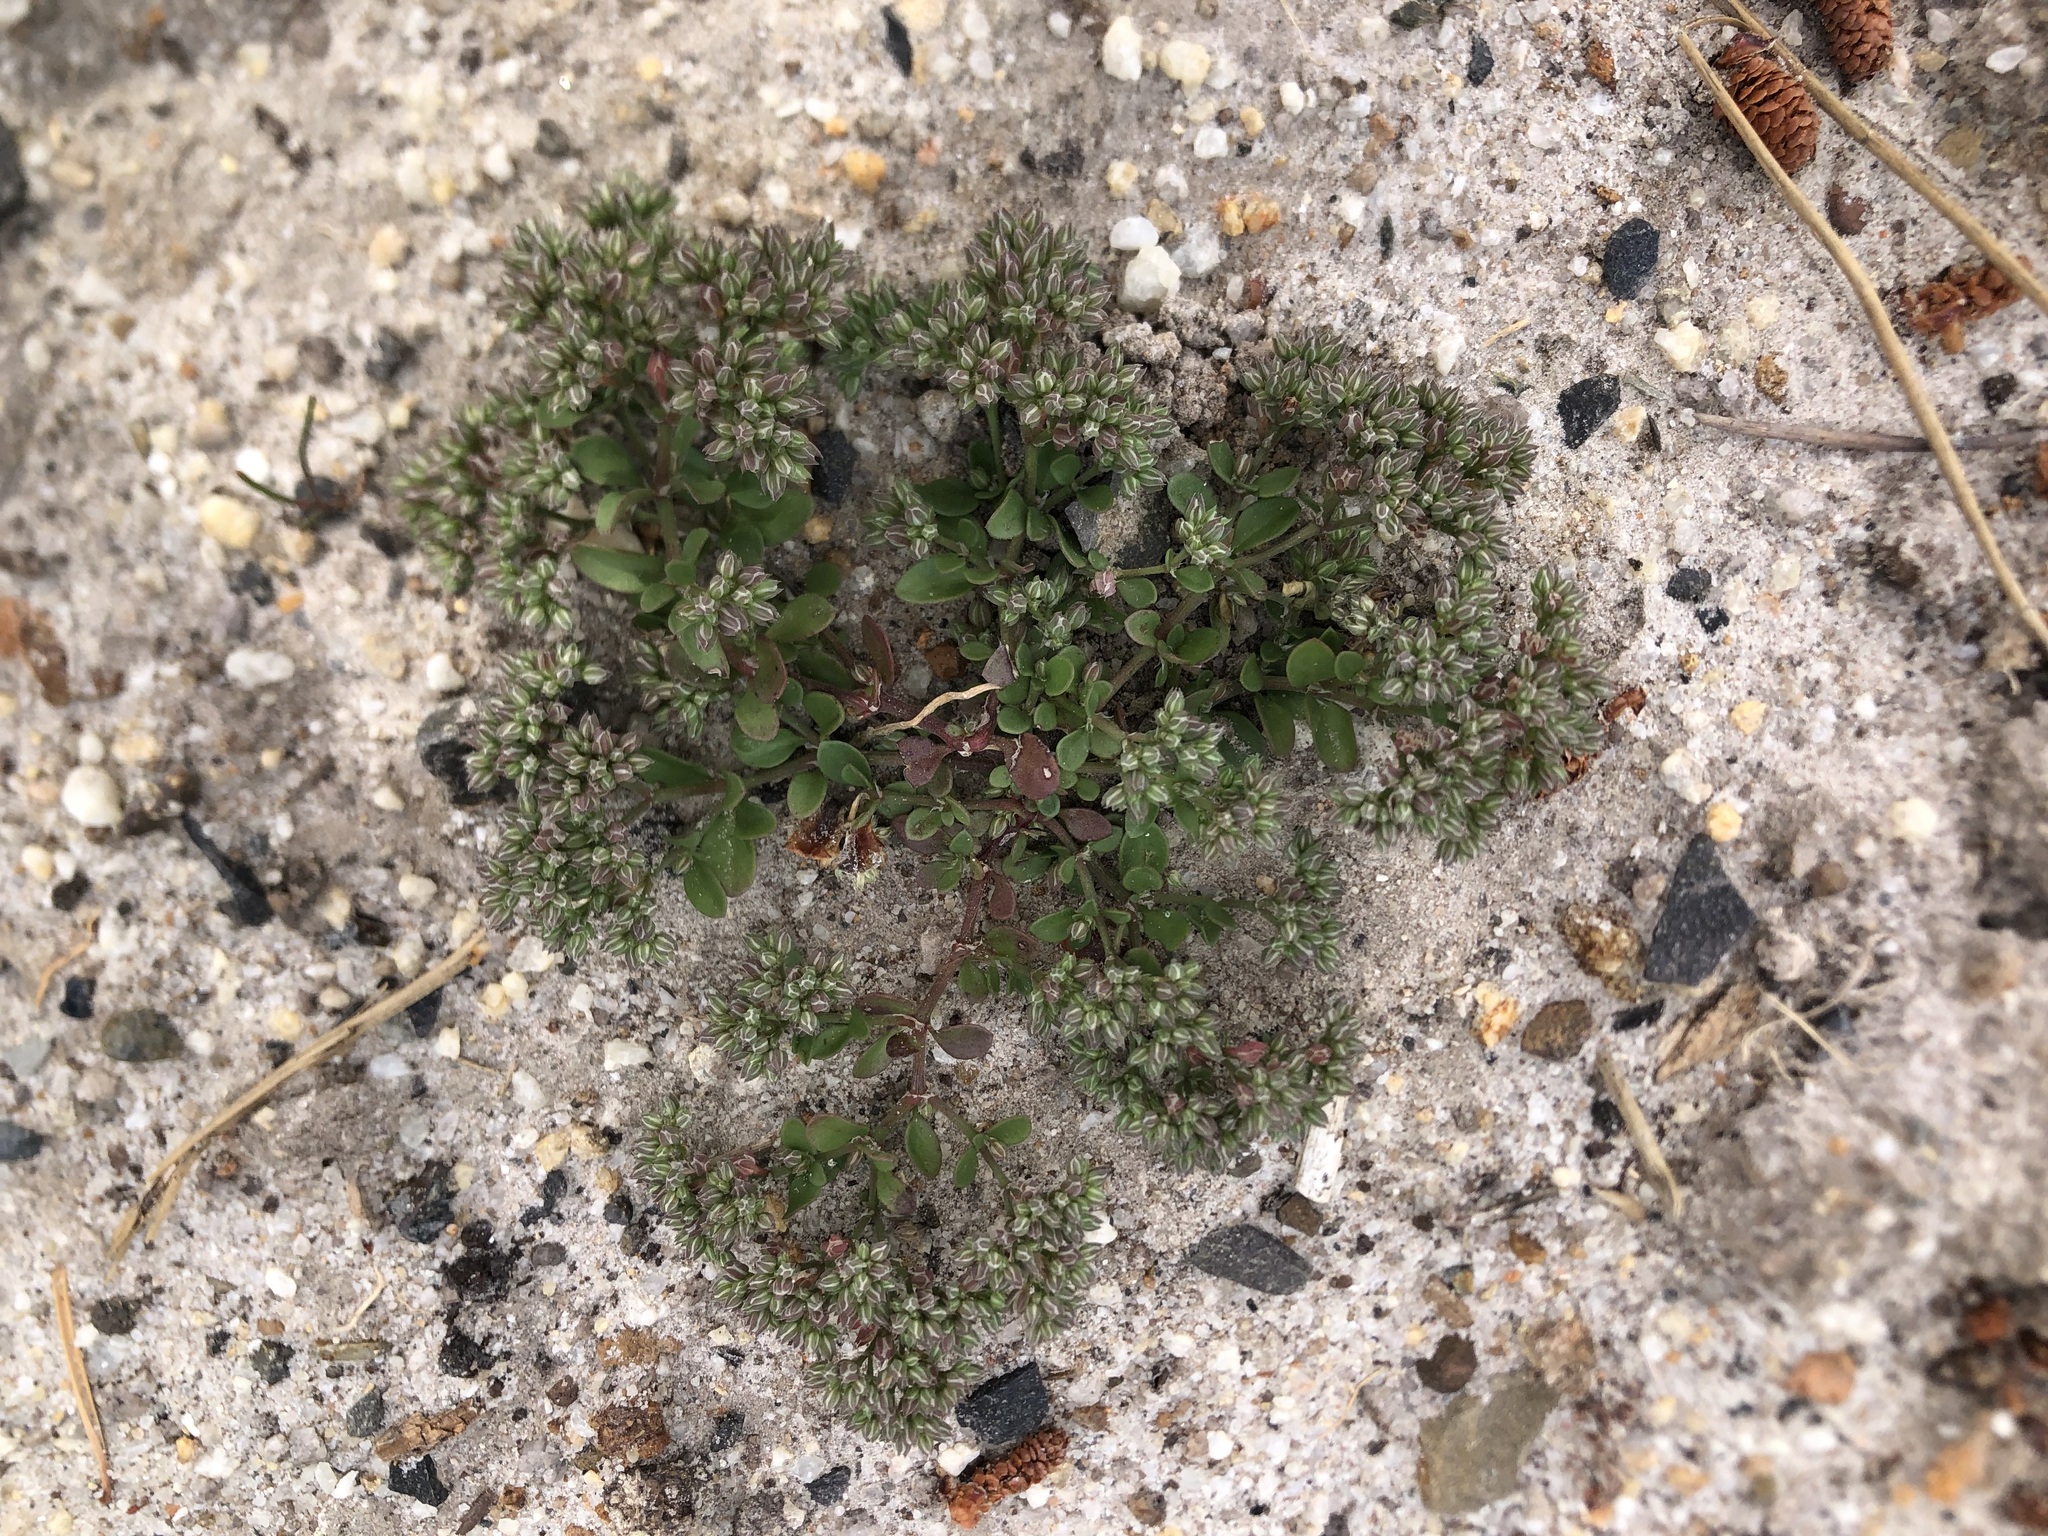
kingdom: Plantae
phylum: Tracheophyta
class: Magnoliopsida
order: Caryophyllales
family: Caryophyllaceae
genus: Polycarpon
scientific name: Polycarpon tetraphyllum
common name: Four-leaved all-seed
